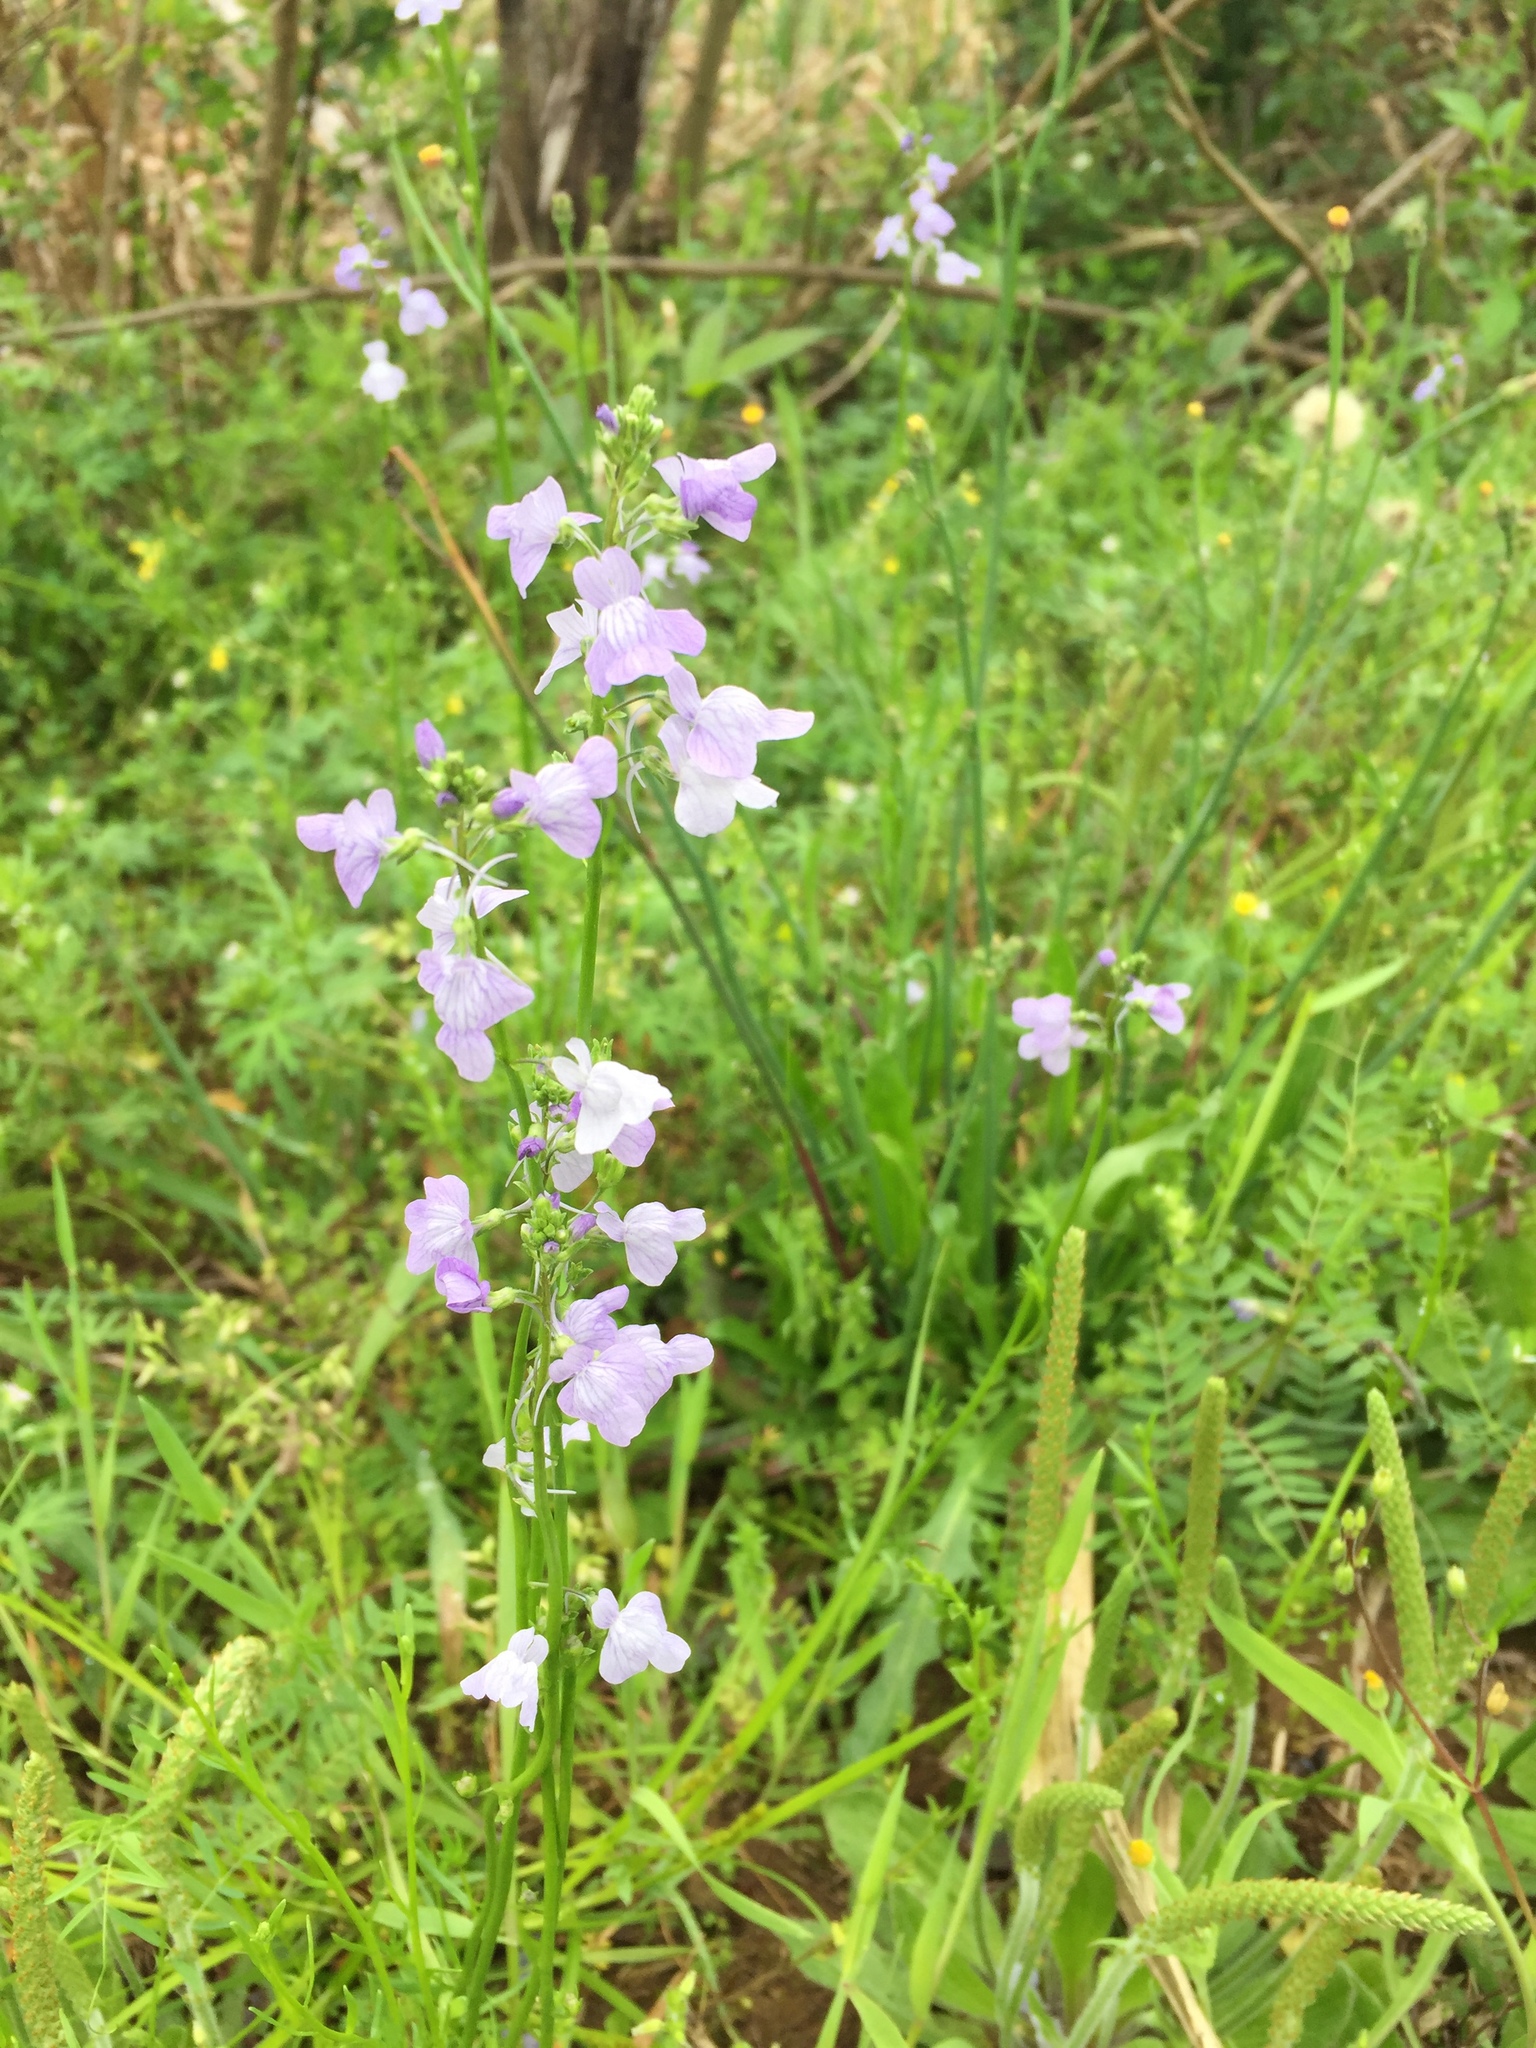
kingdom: Plantae
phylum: Tracheophyta
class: Magnoliopsida
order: Lamiales
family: Plantaginaceae
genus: Nuttallanthus
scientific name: Nuttallanthus canadensis
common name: Blue toadflax
